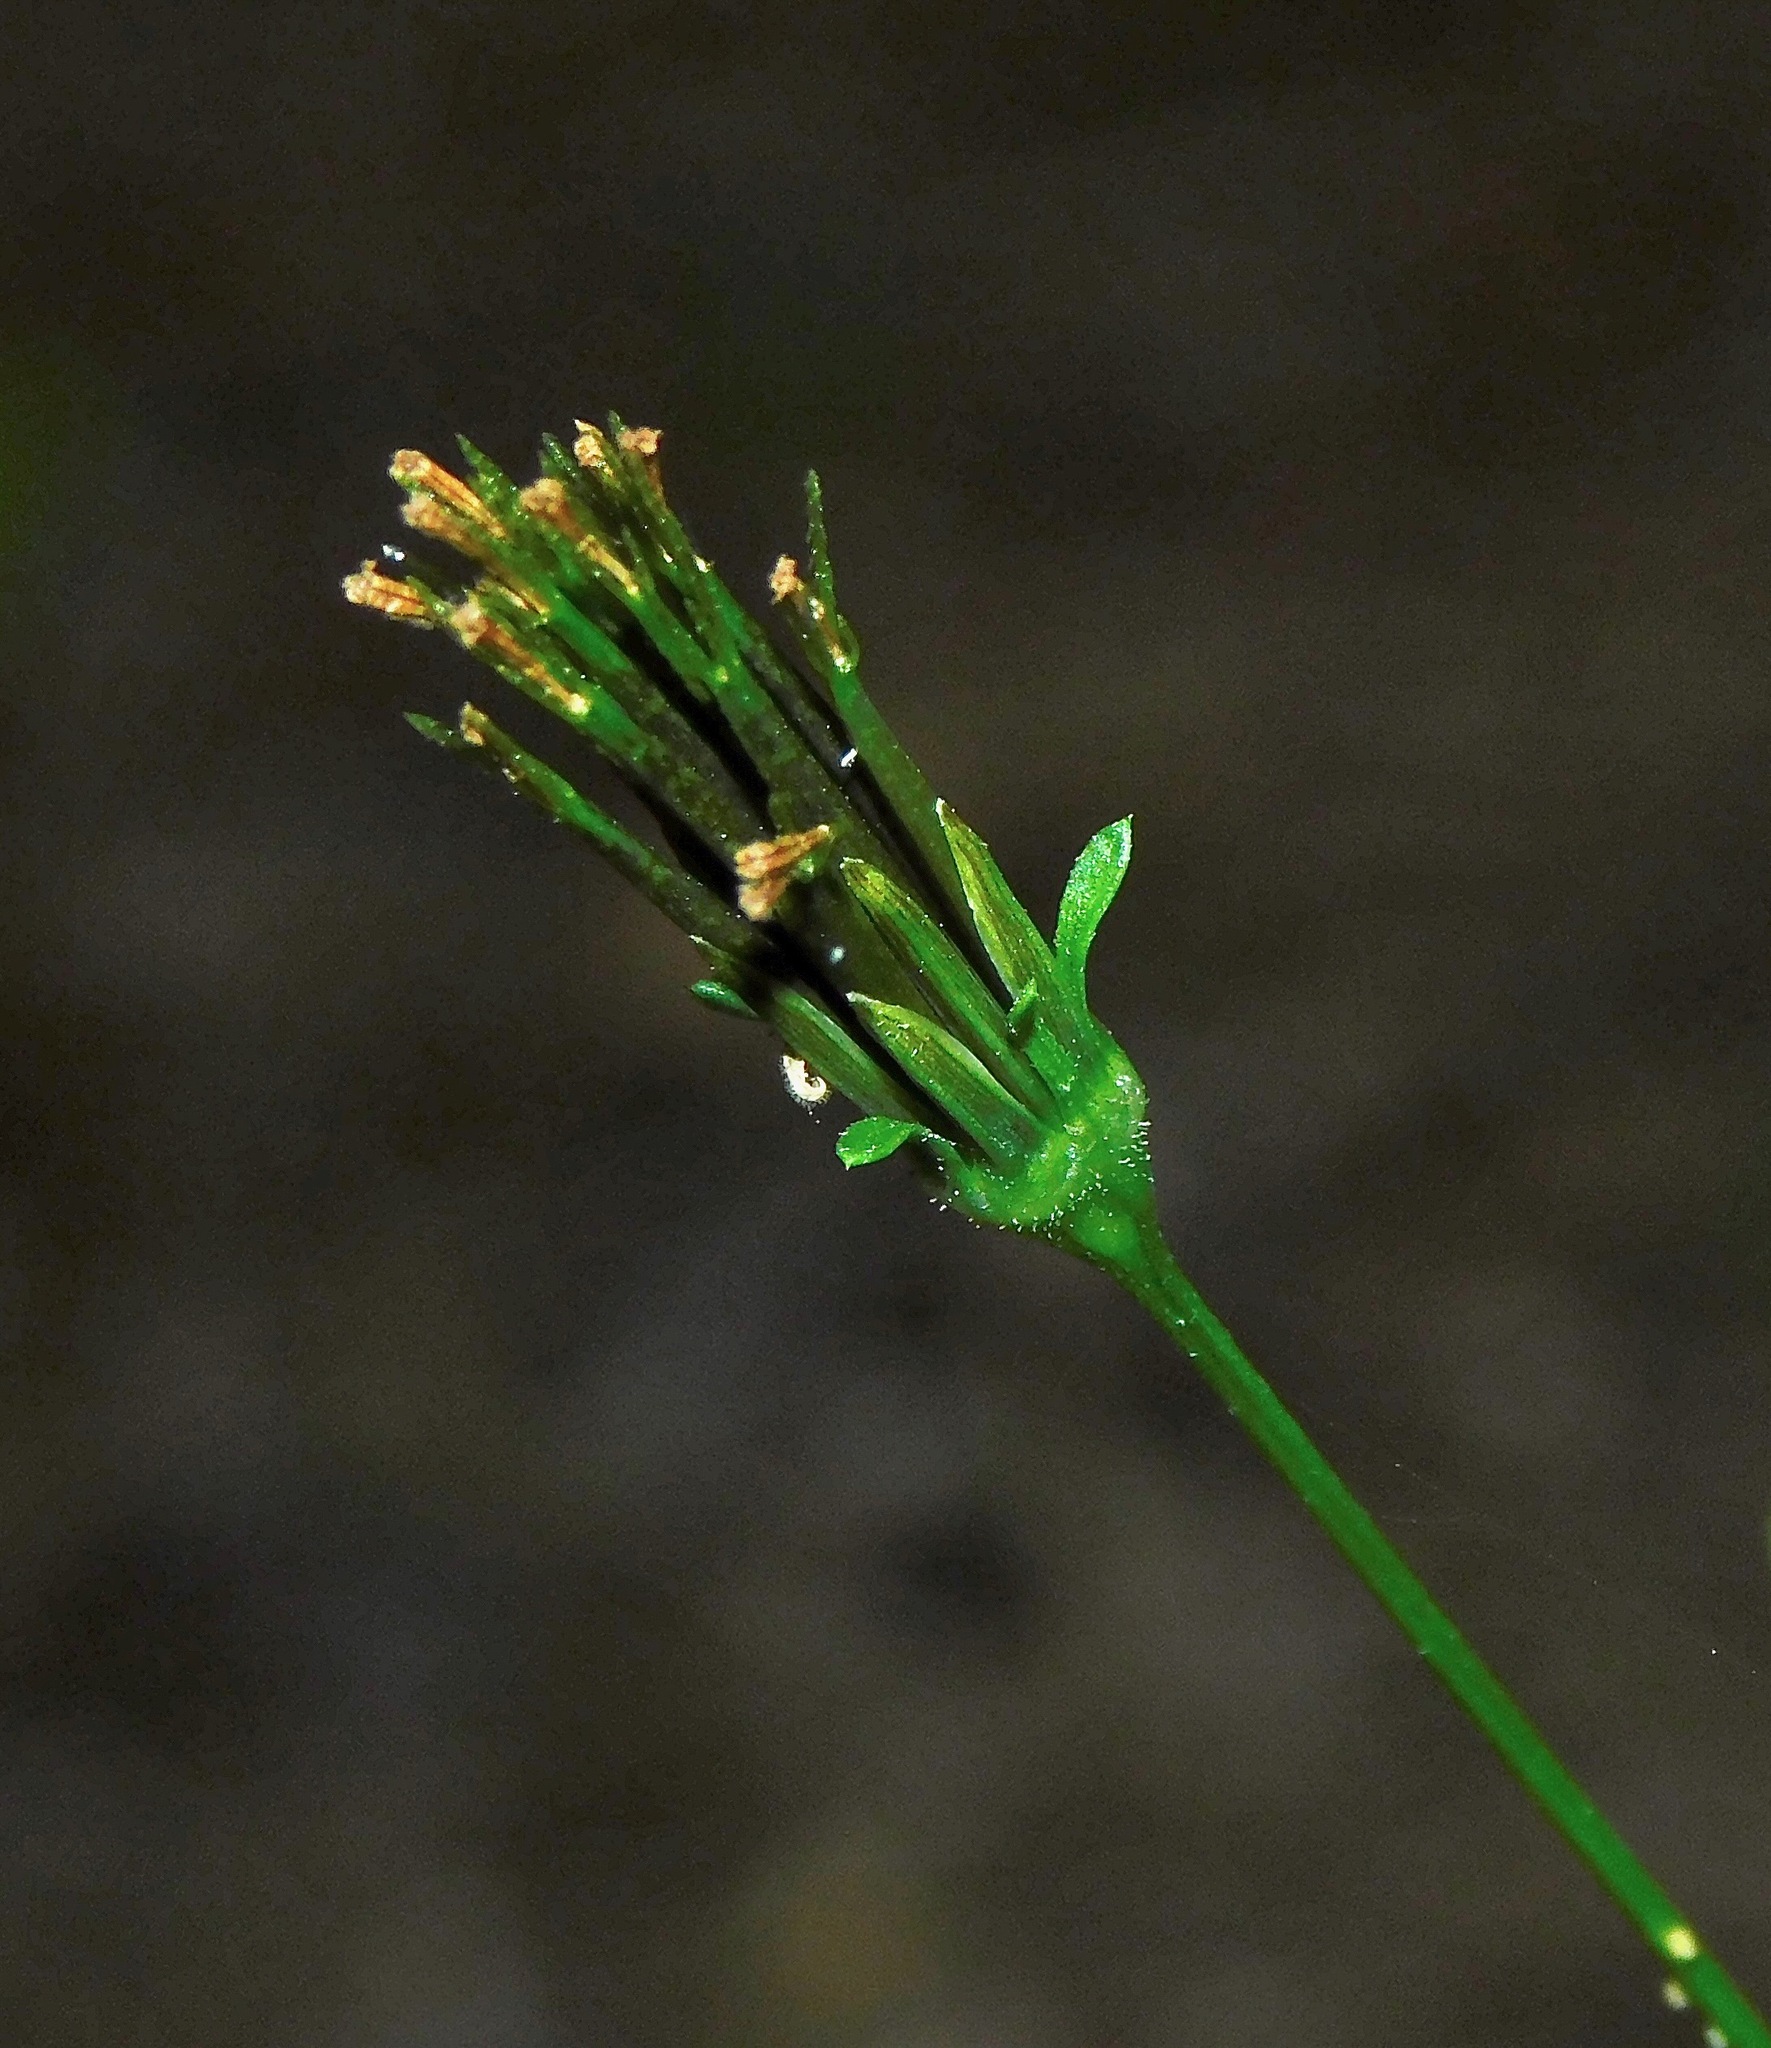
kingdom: Plantae
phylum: Tracheophyta
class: Magnoliopsida
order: Asterales
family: Asteraceae
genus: Bidens
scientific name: Bidens bipinnata
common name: Spanish-needles
